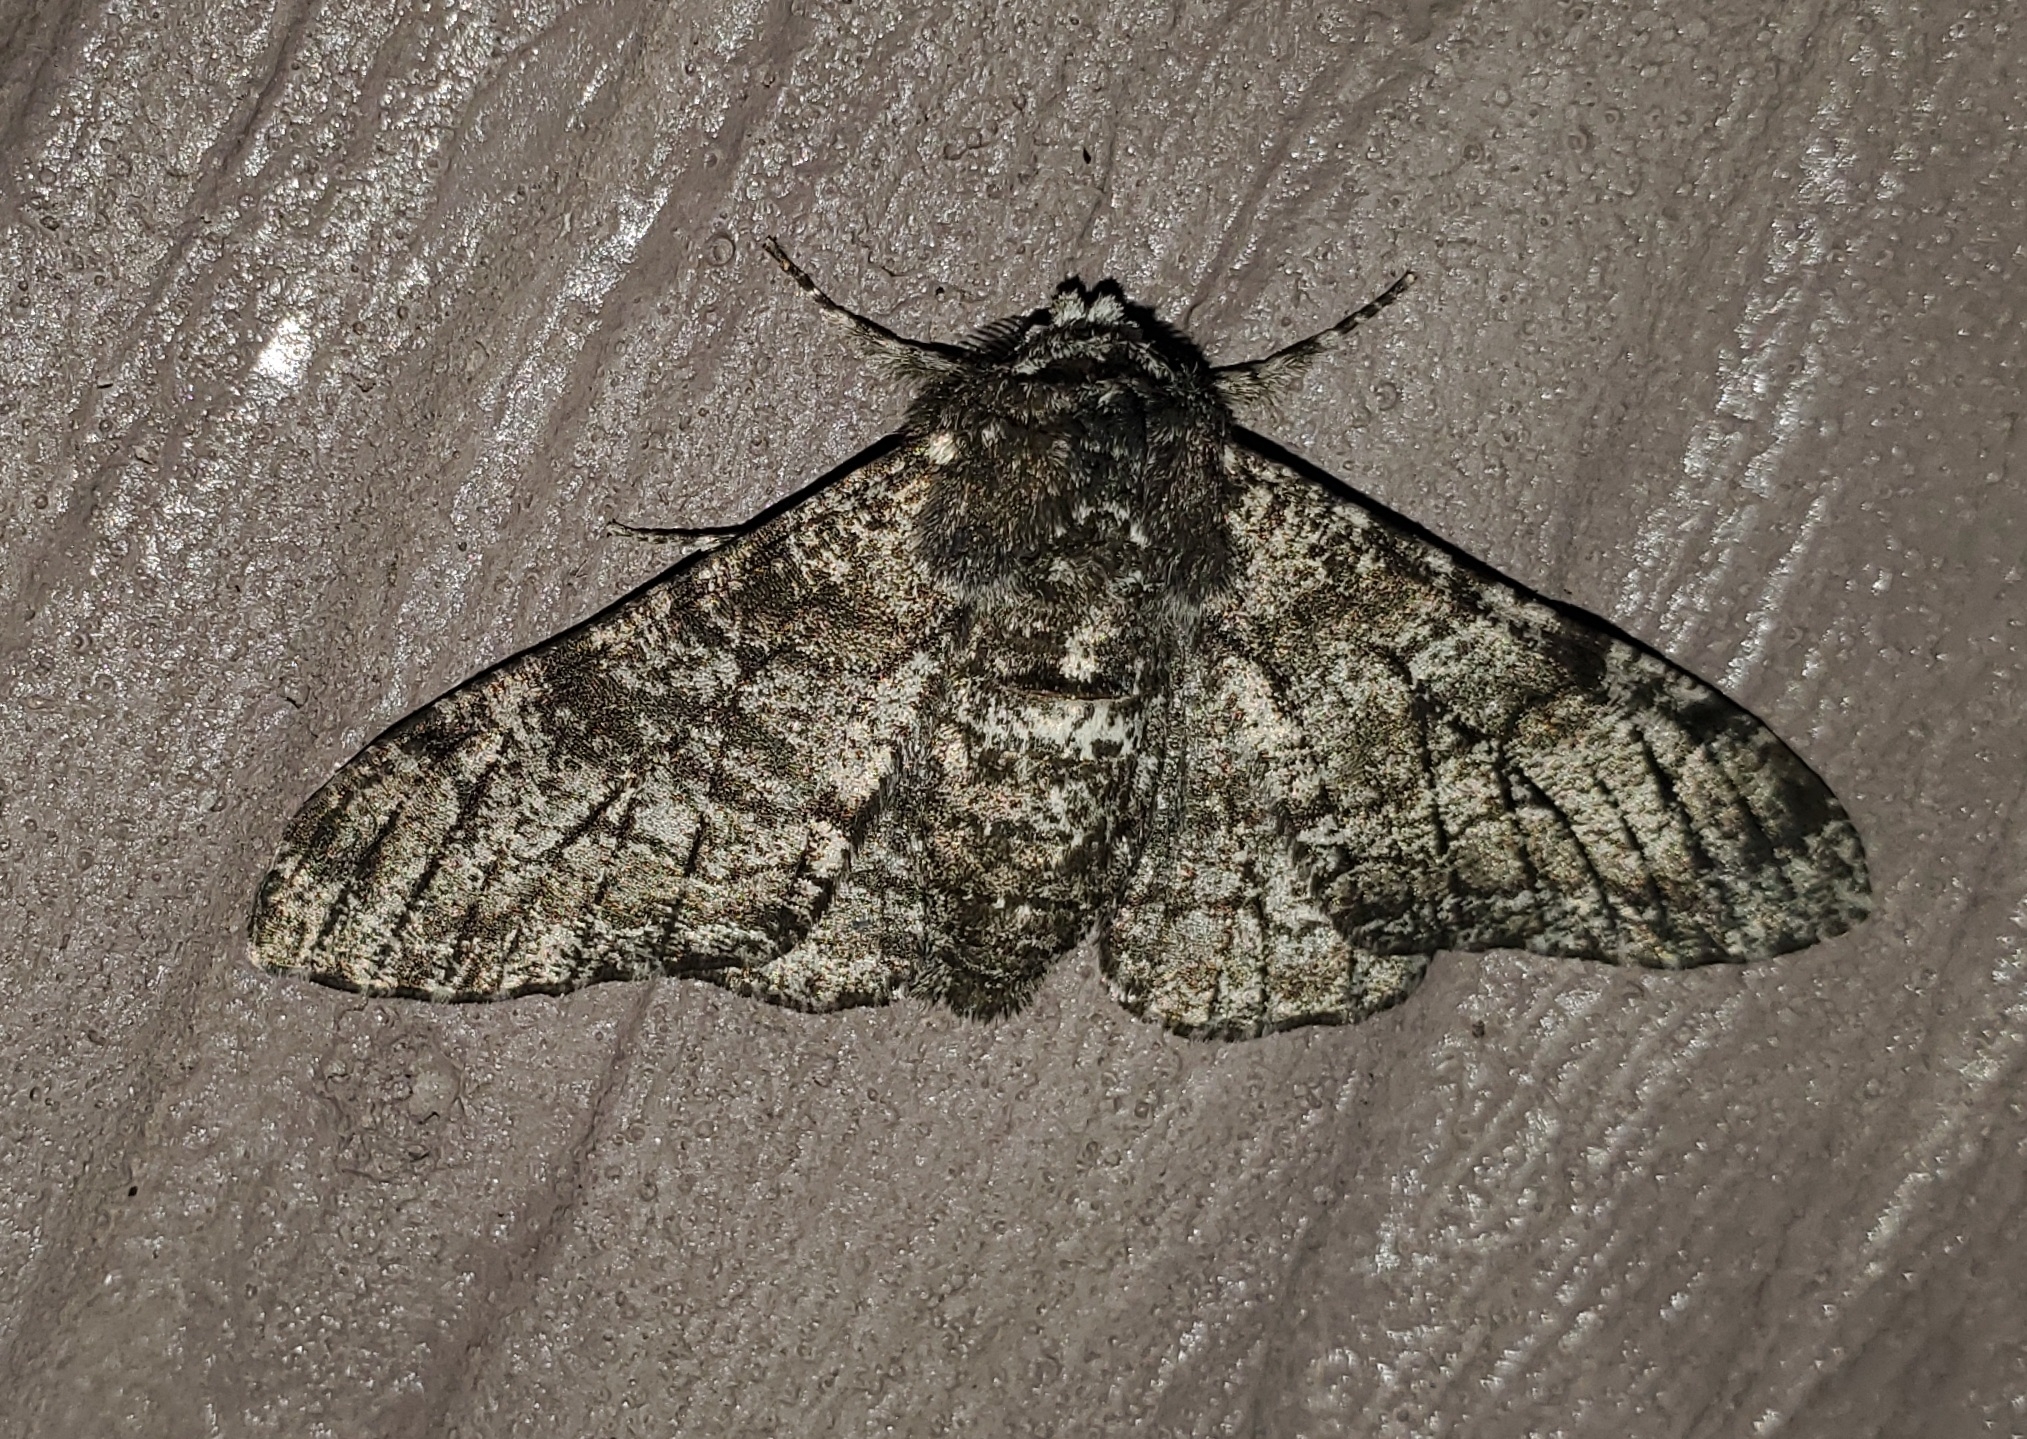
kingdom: Animalia
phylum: Arthropoda
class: Insecta
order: Lepidoptera
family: Geometridae
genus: Biston
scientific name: Biston betularia
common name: Peppered moth
